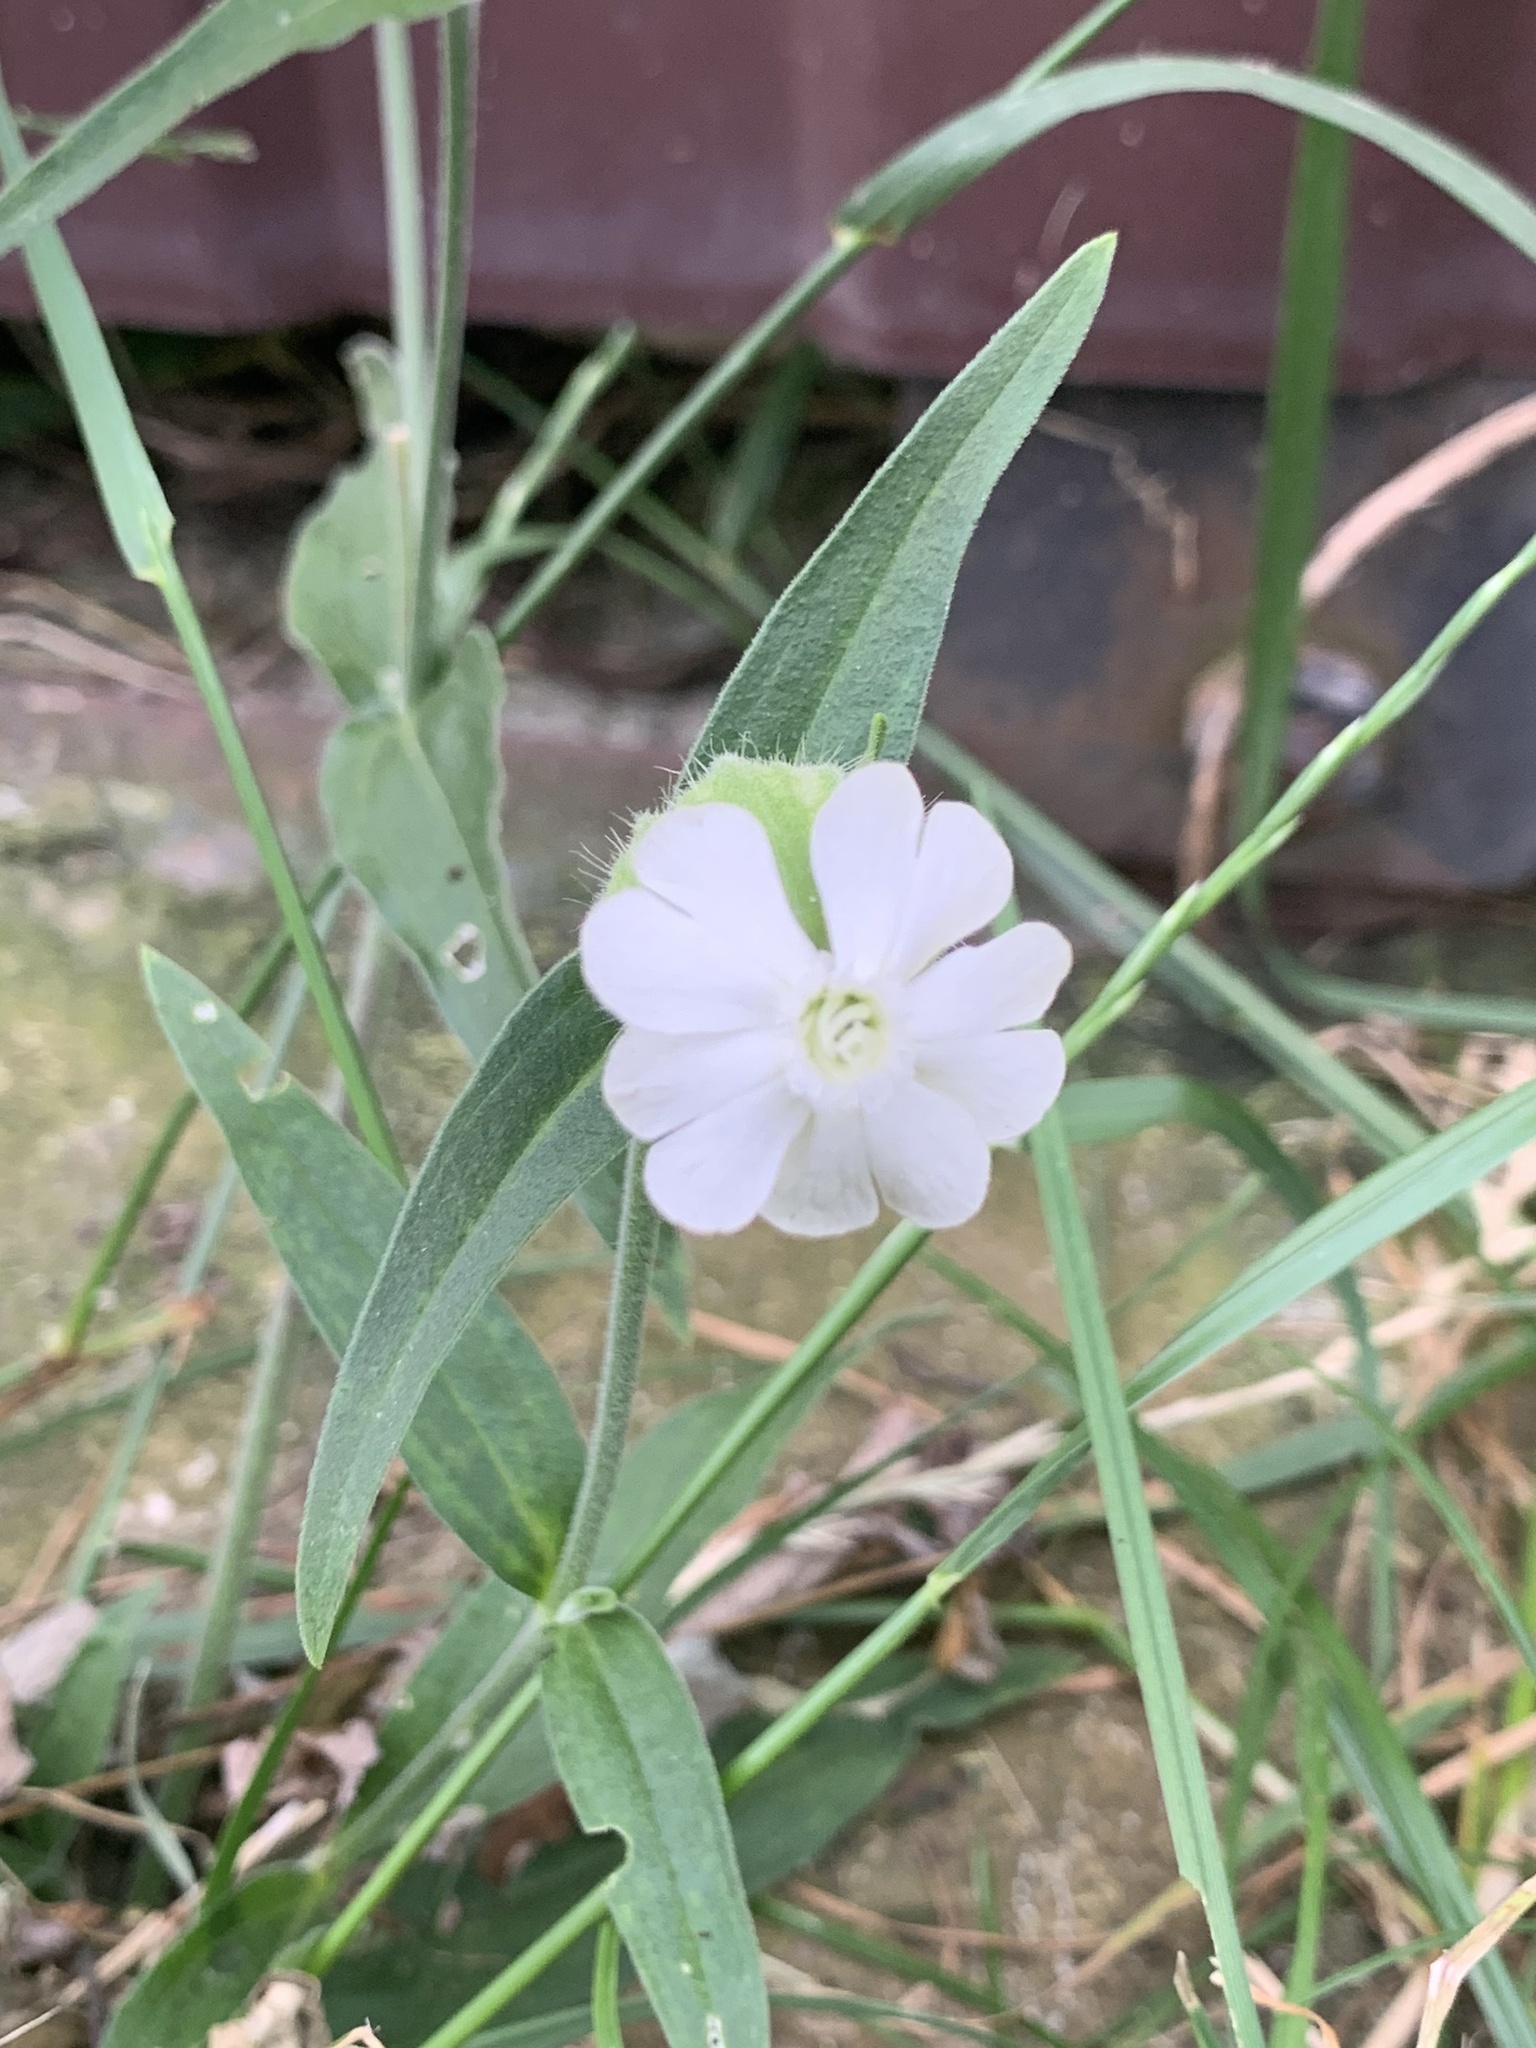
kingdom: Plantae
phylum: Tracheophyta
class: Magnoliopsida
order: Caryophyllales
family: Caryophyllaceae
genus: Silene
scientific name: Silene latifolia
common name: White campion
